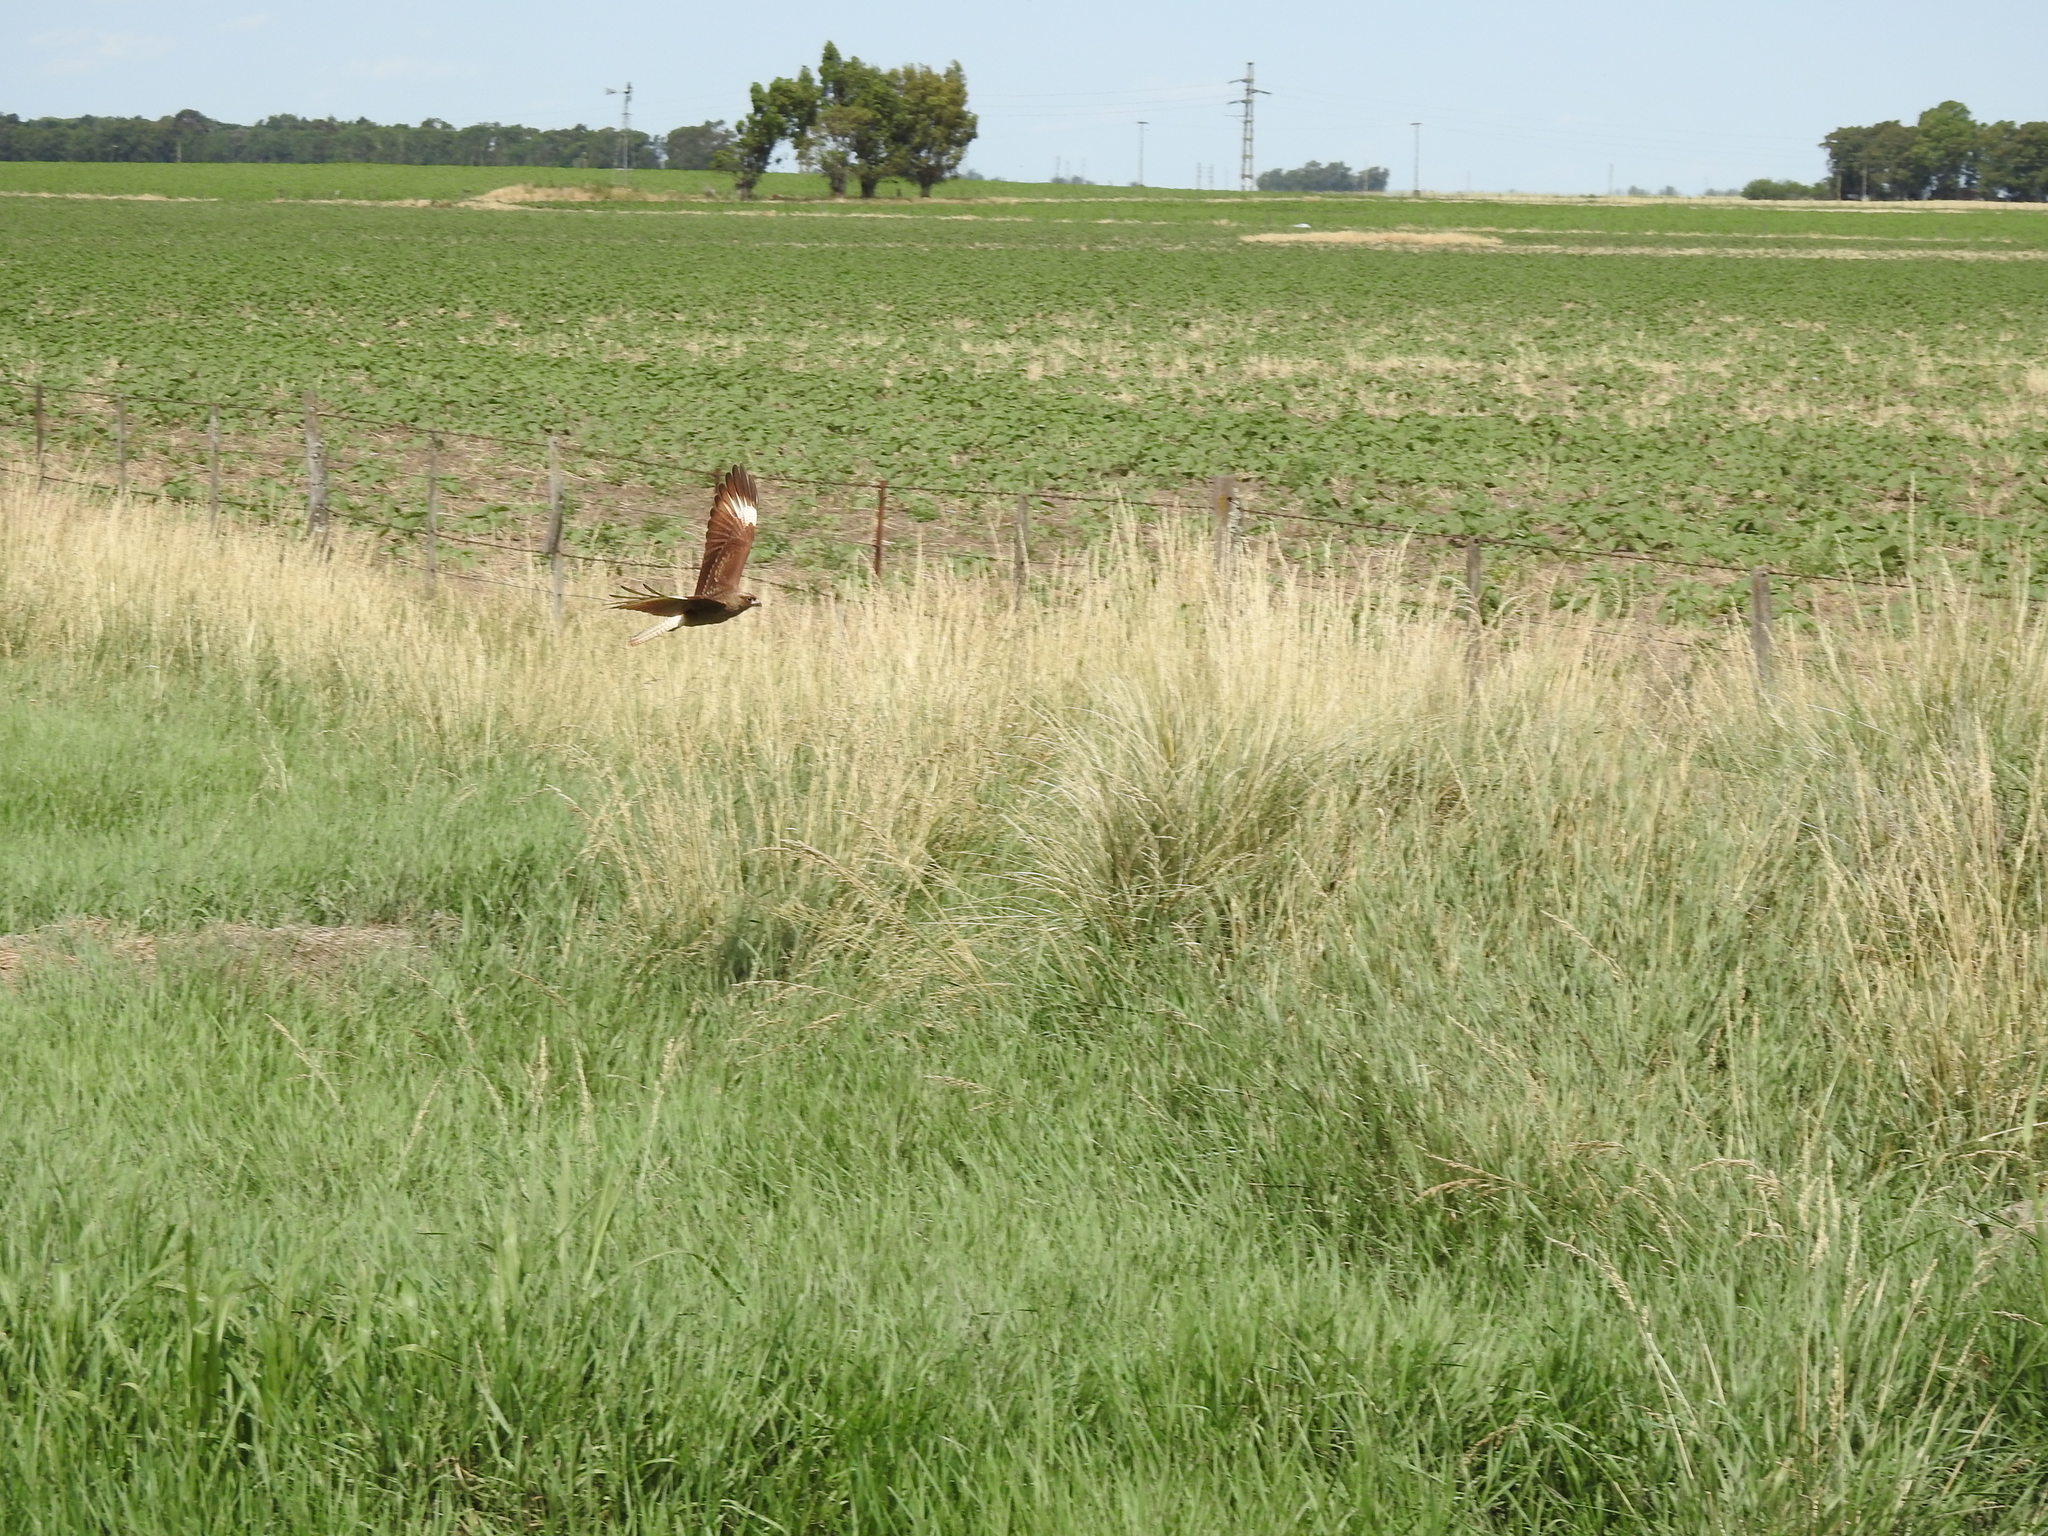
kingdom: Animalia
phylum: Chordata
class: Aves
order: Falconiformes
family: Falconidae
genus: Daptrius
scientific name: Daptrius
